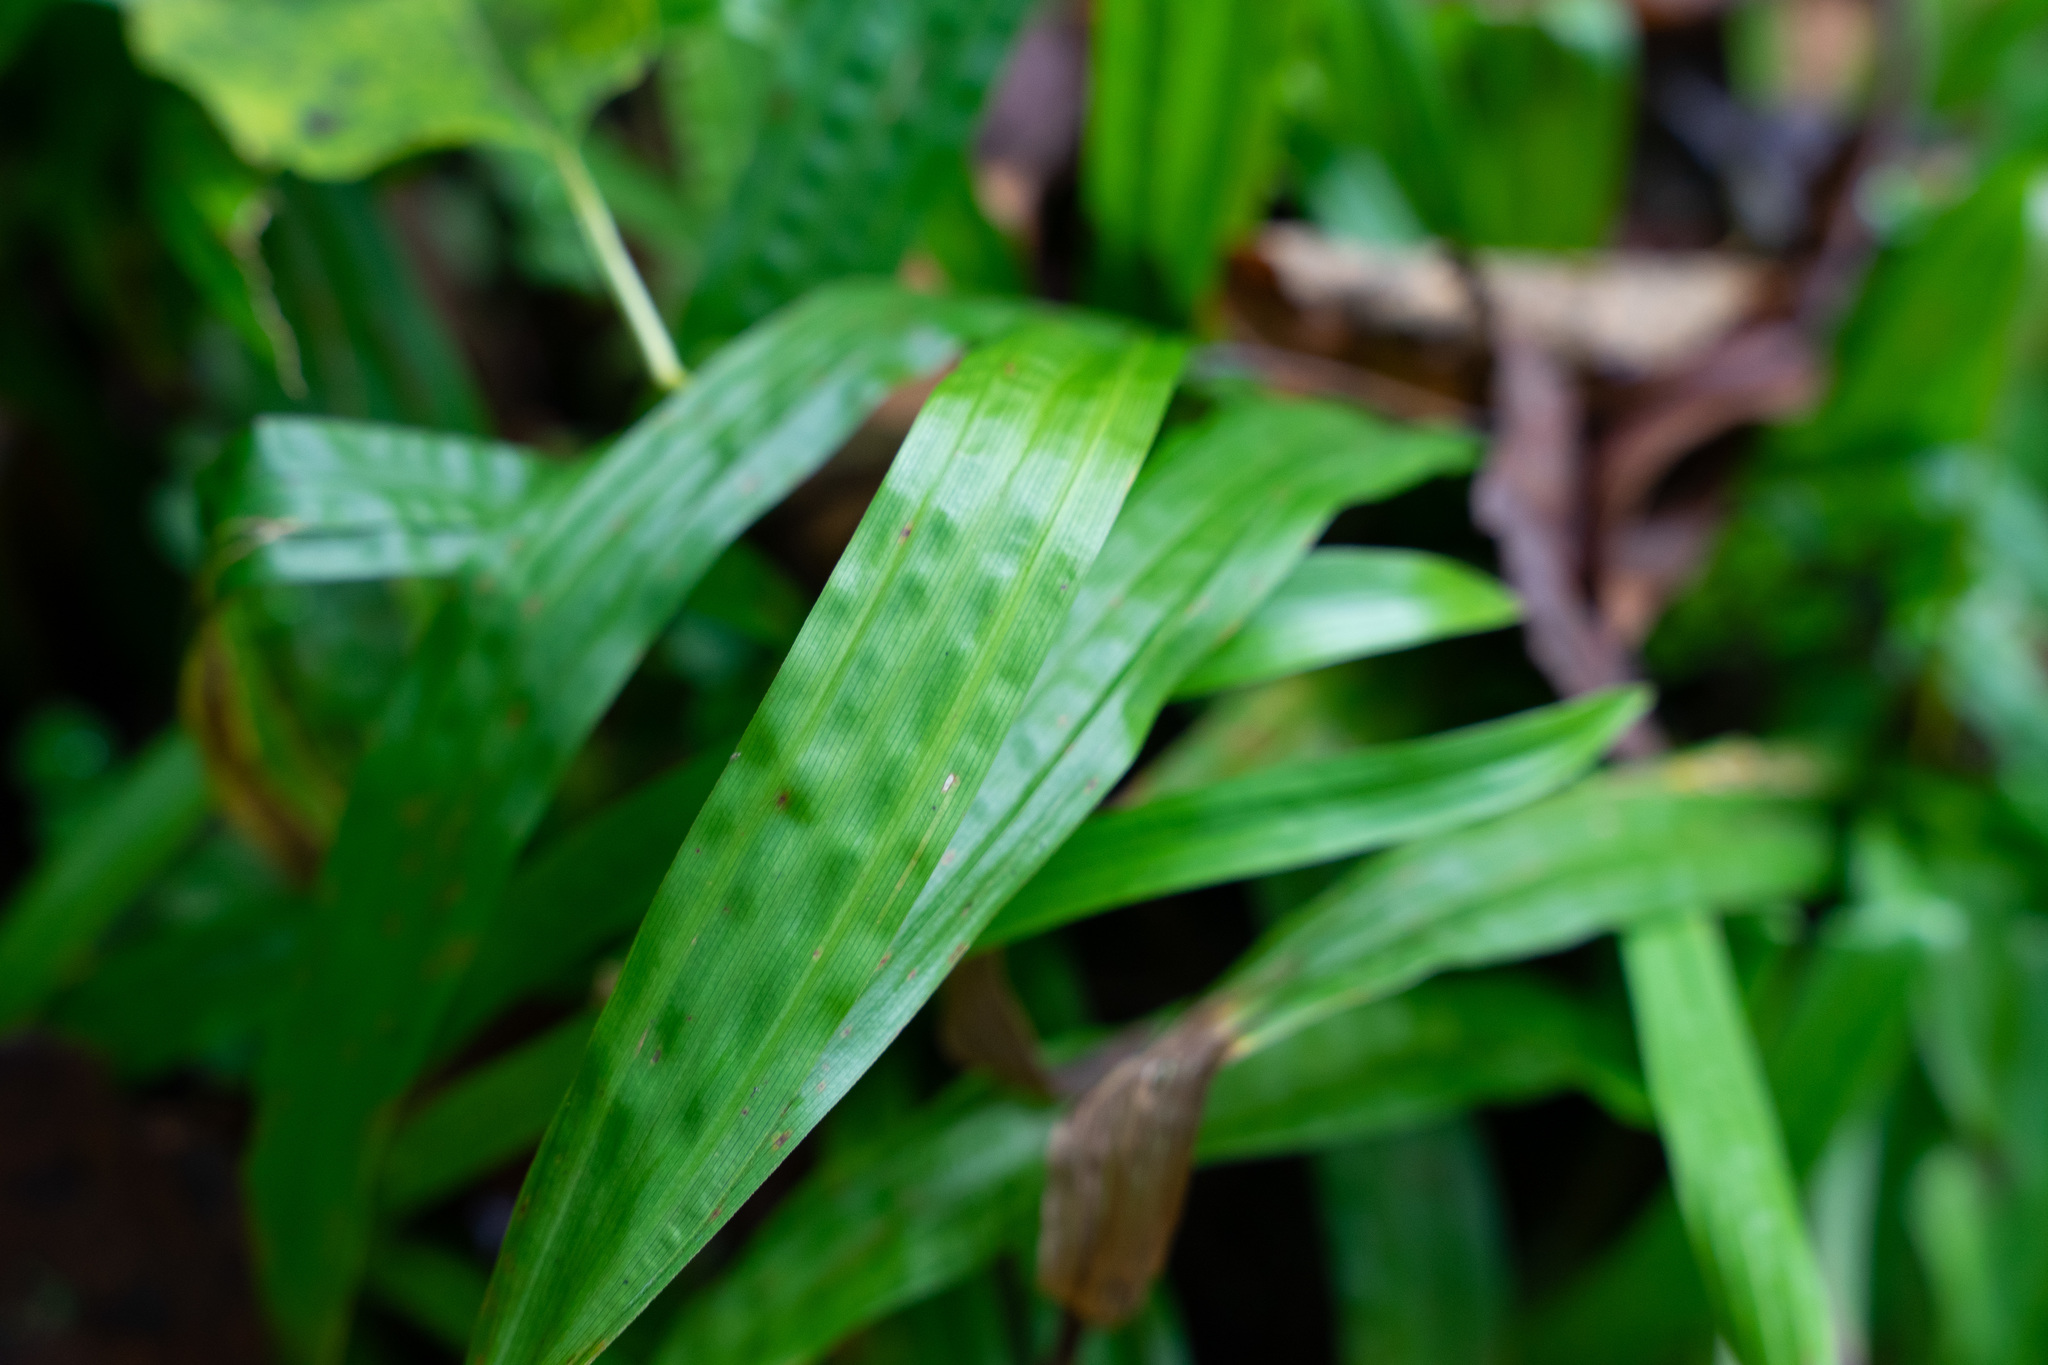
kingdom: Plantae
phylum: Tracheophyta
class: Liliopsida
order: Poales
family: Cyperaceae
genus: Carex
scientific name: Carex plantaginea
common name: Plantain-leaved sedge
